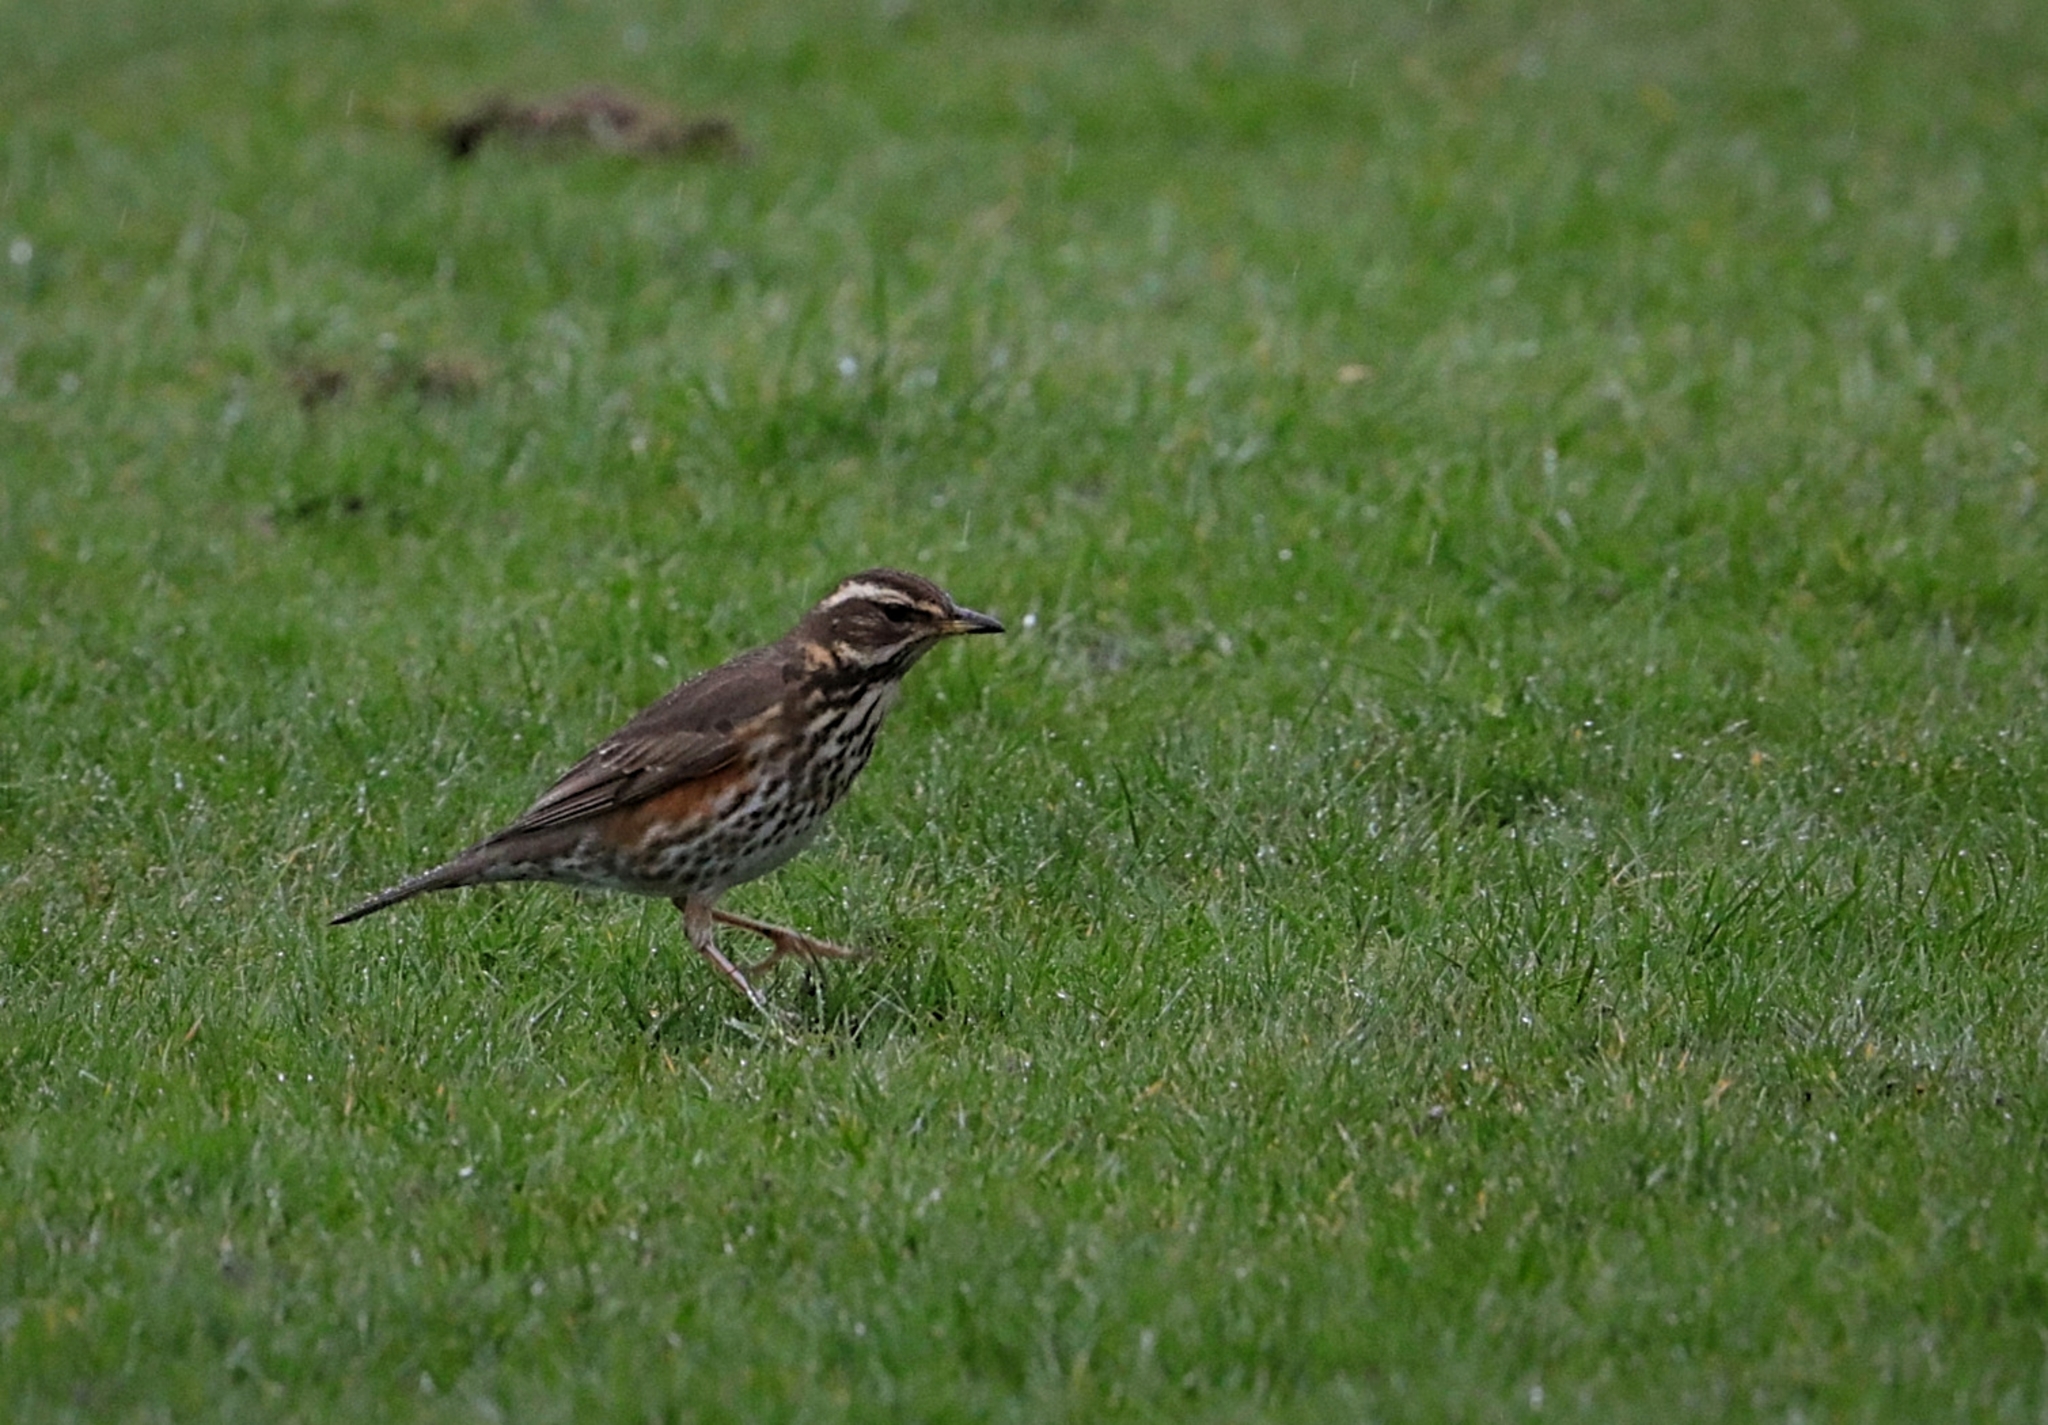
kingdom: Animalia
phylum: Chordata
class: Aves
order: Passeriformes
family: Turdidae
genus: Turdus
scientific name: Turdus iliacus
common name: Redwing
